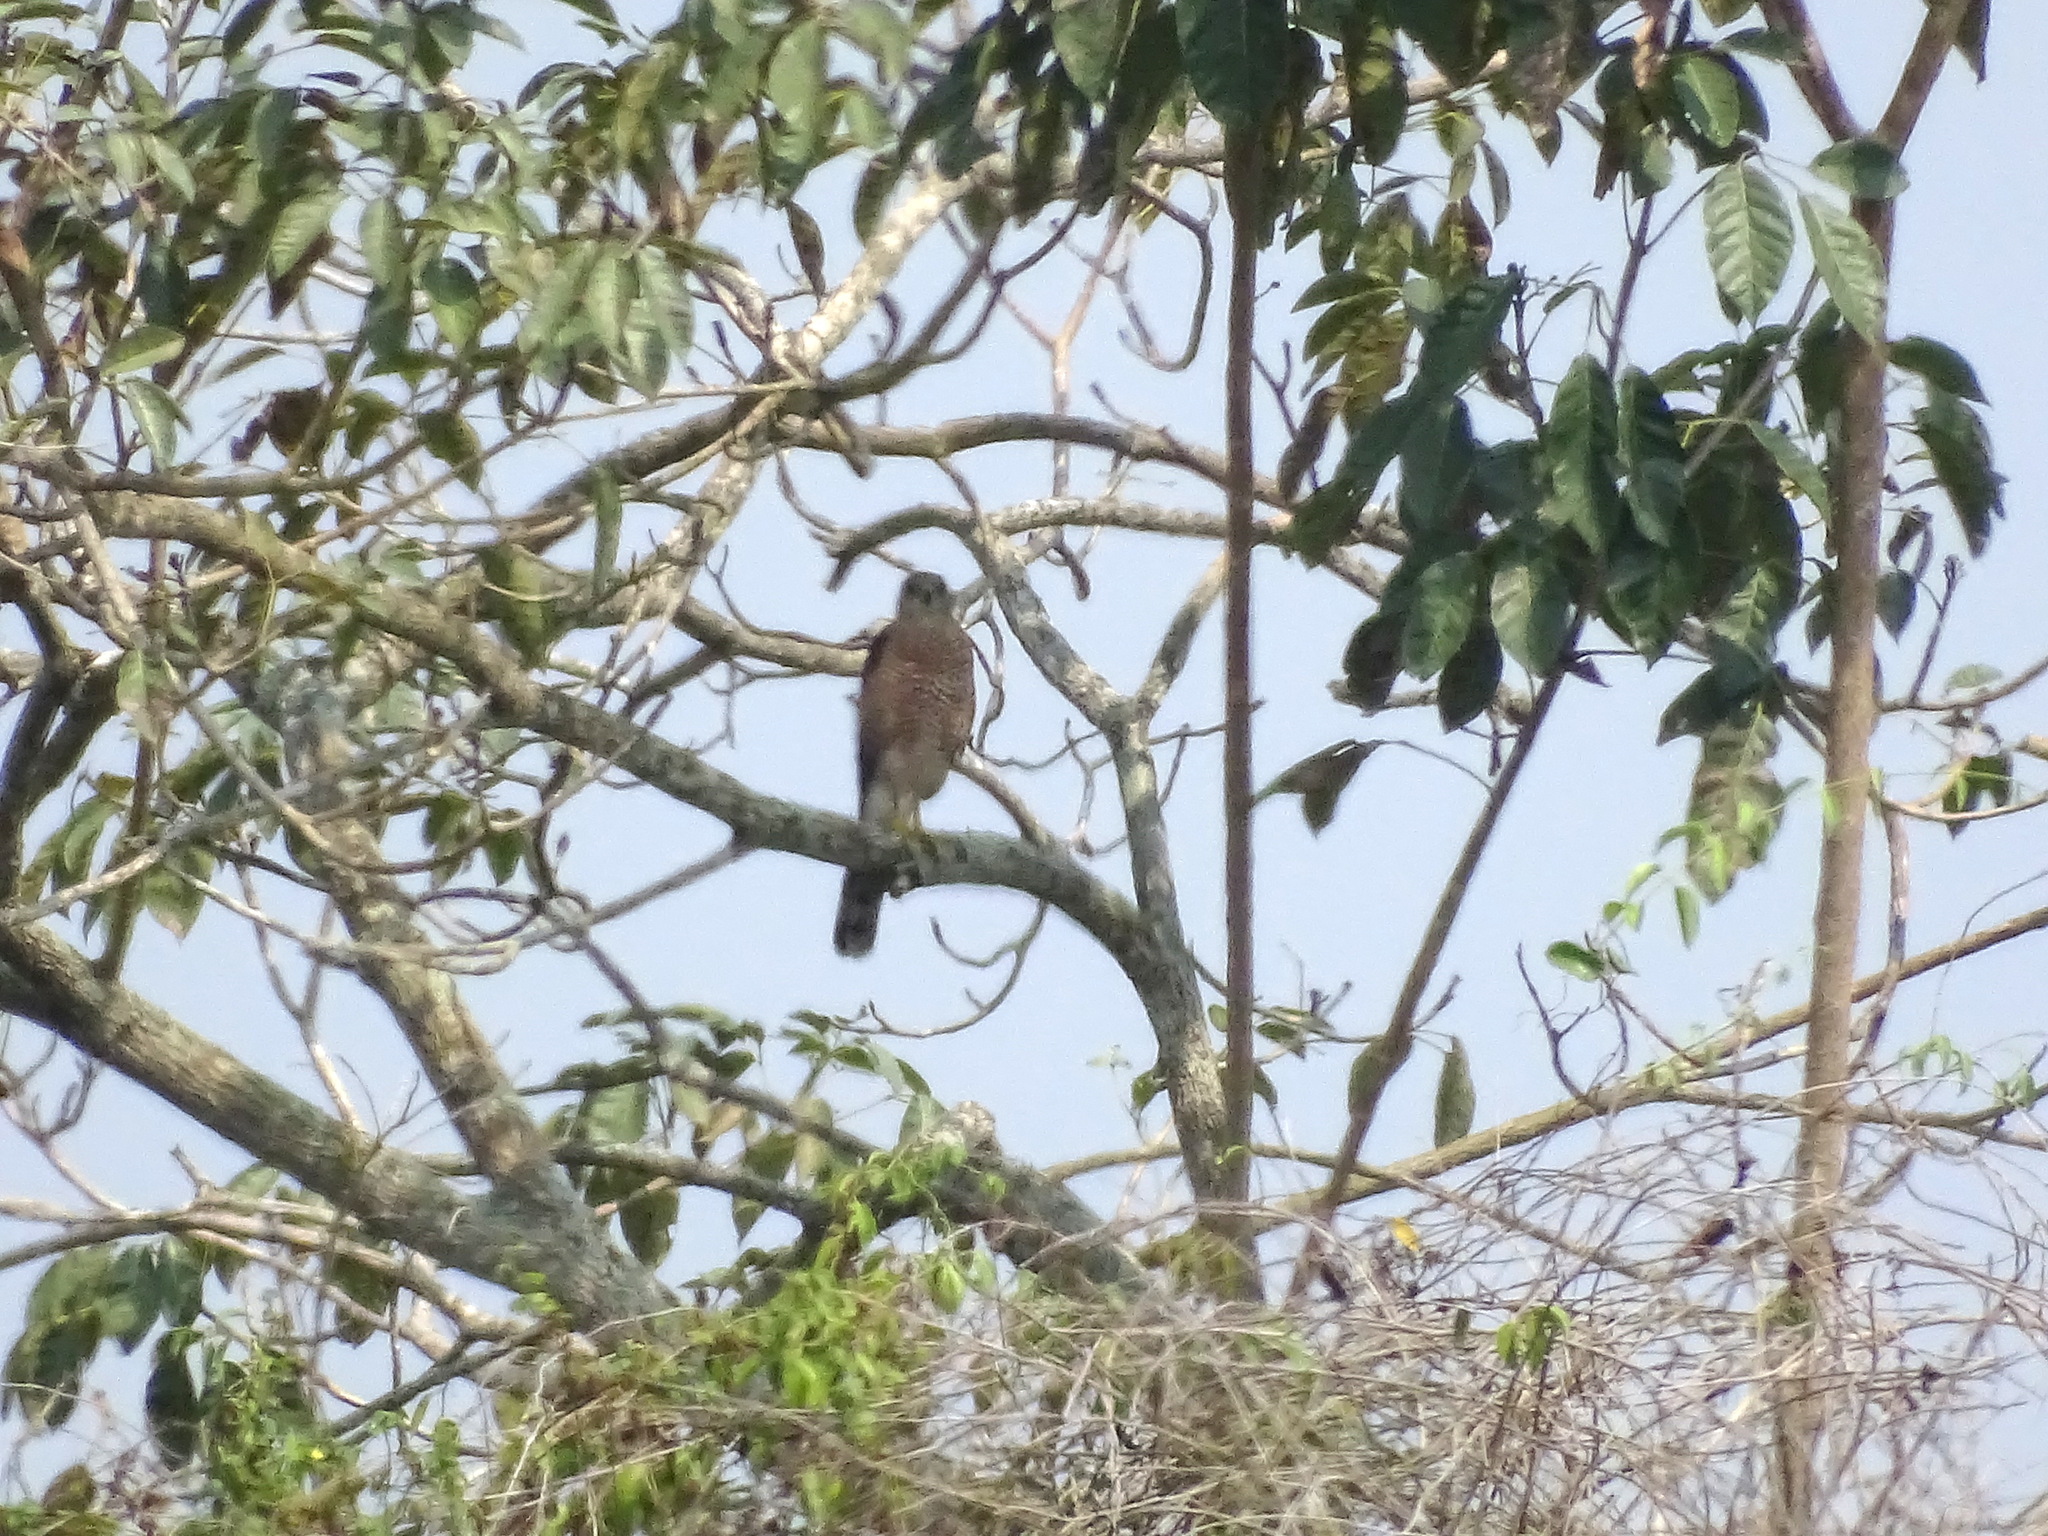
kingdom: Animalia
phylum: Chordata
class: Aves
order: Accipitriformes
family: Accipitridae
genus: Accipiter
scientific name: Accipiter cooperii
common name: Cooper's hawk
